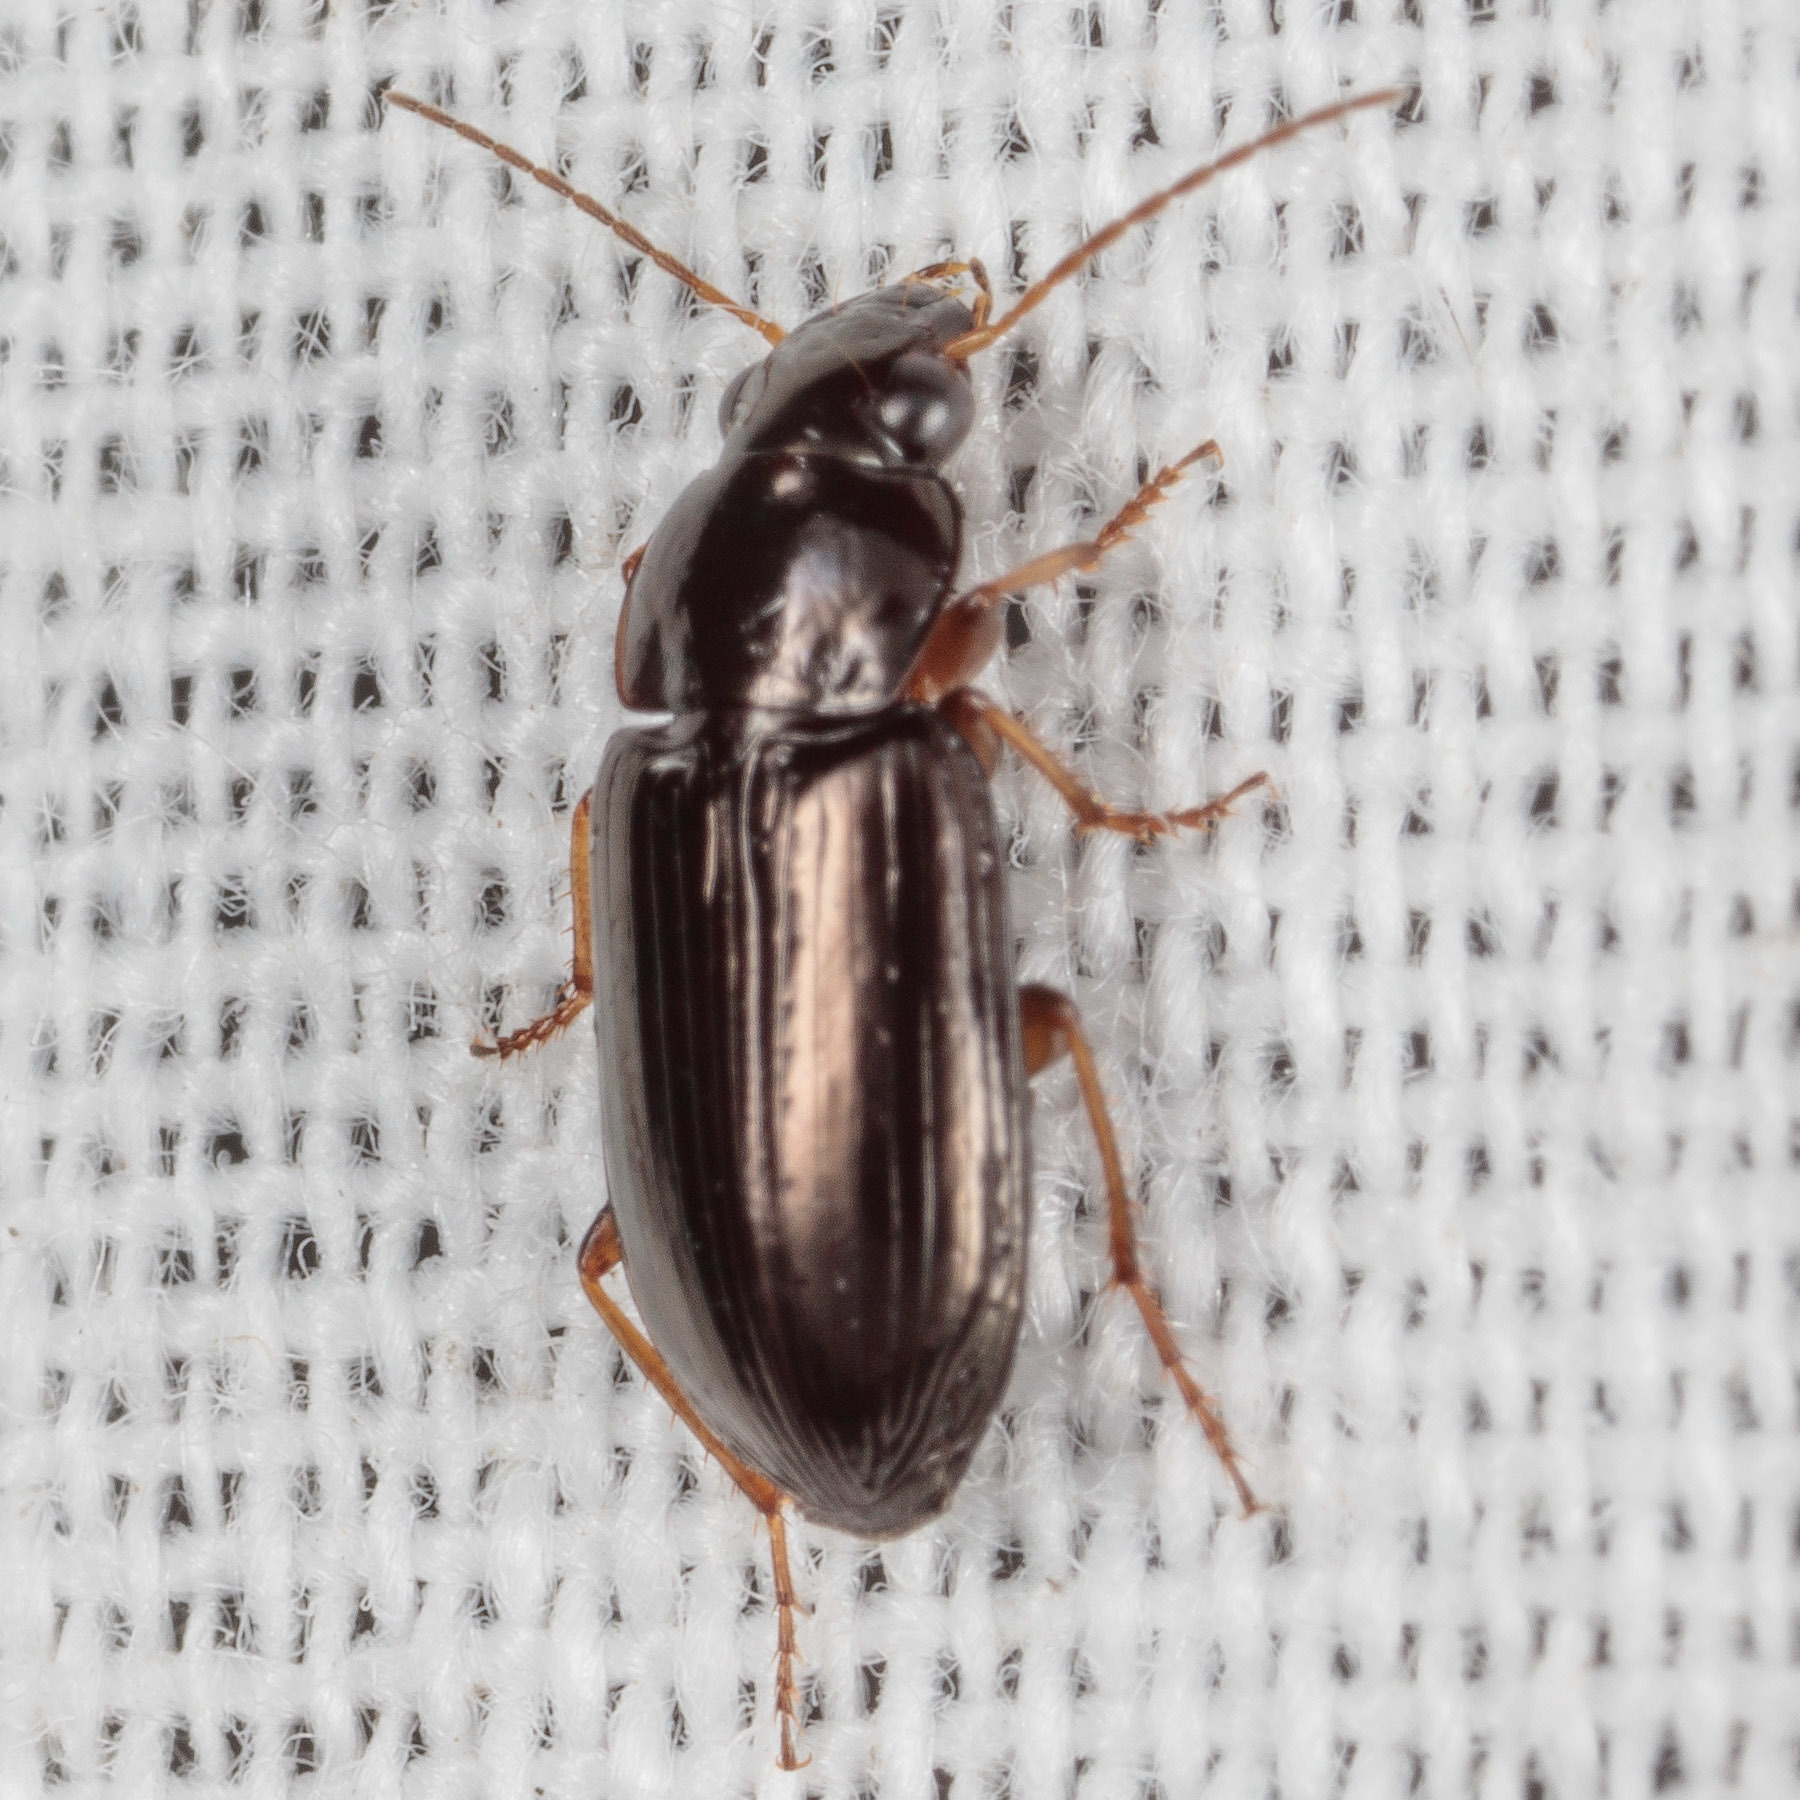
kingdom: Animalia
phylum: Arthropoda
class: Insecta
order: Coleoptera
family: Carabidae
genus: Selenophorus
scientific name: Selenophorus fatuus
